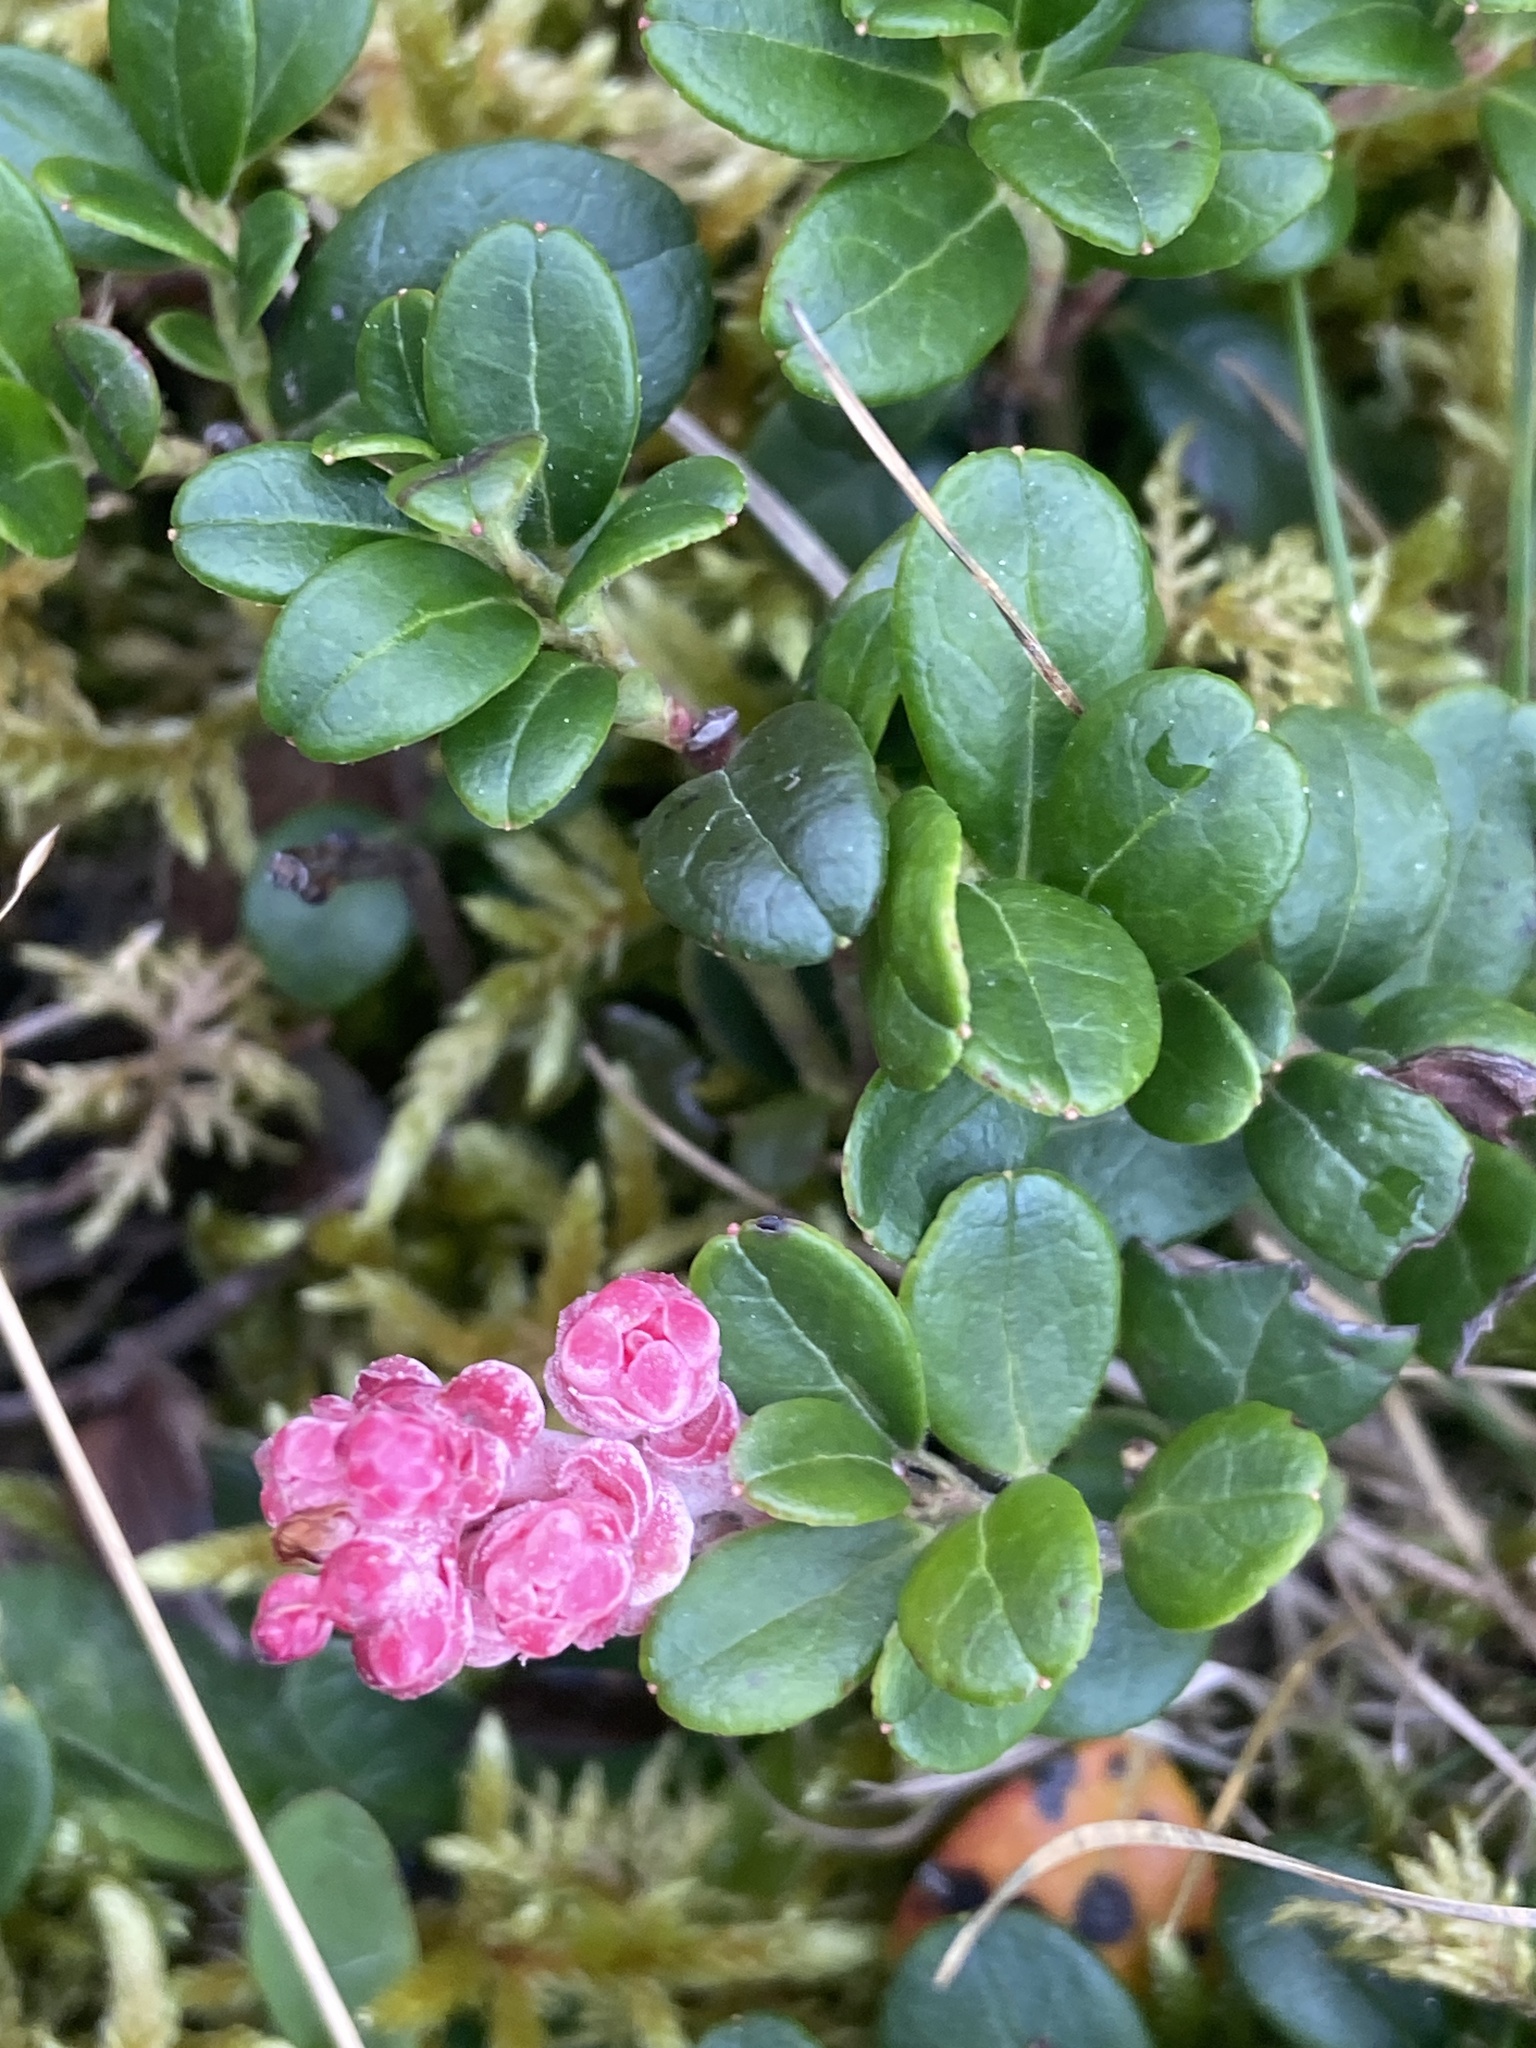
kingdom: Plantae
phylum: Tracheophyta
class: Magnoliopsida
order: Ericales
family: Ericaceae
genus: Vaccinium
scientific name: Vaccinium vitis-idaea
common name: Cowberry
